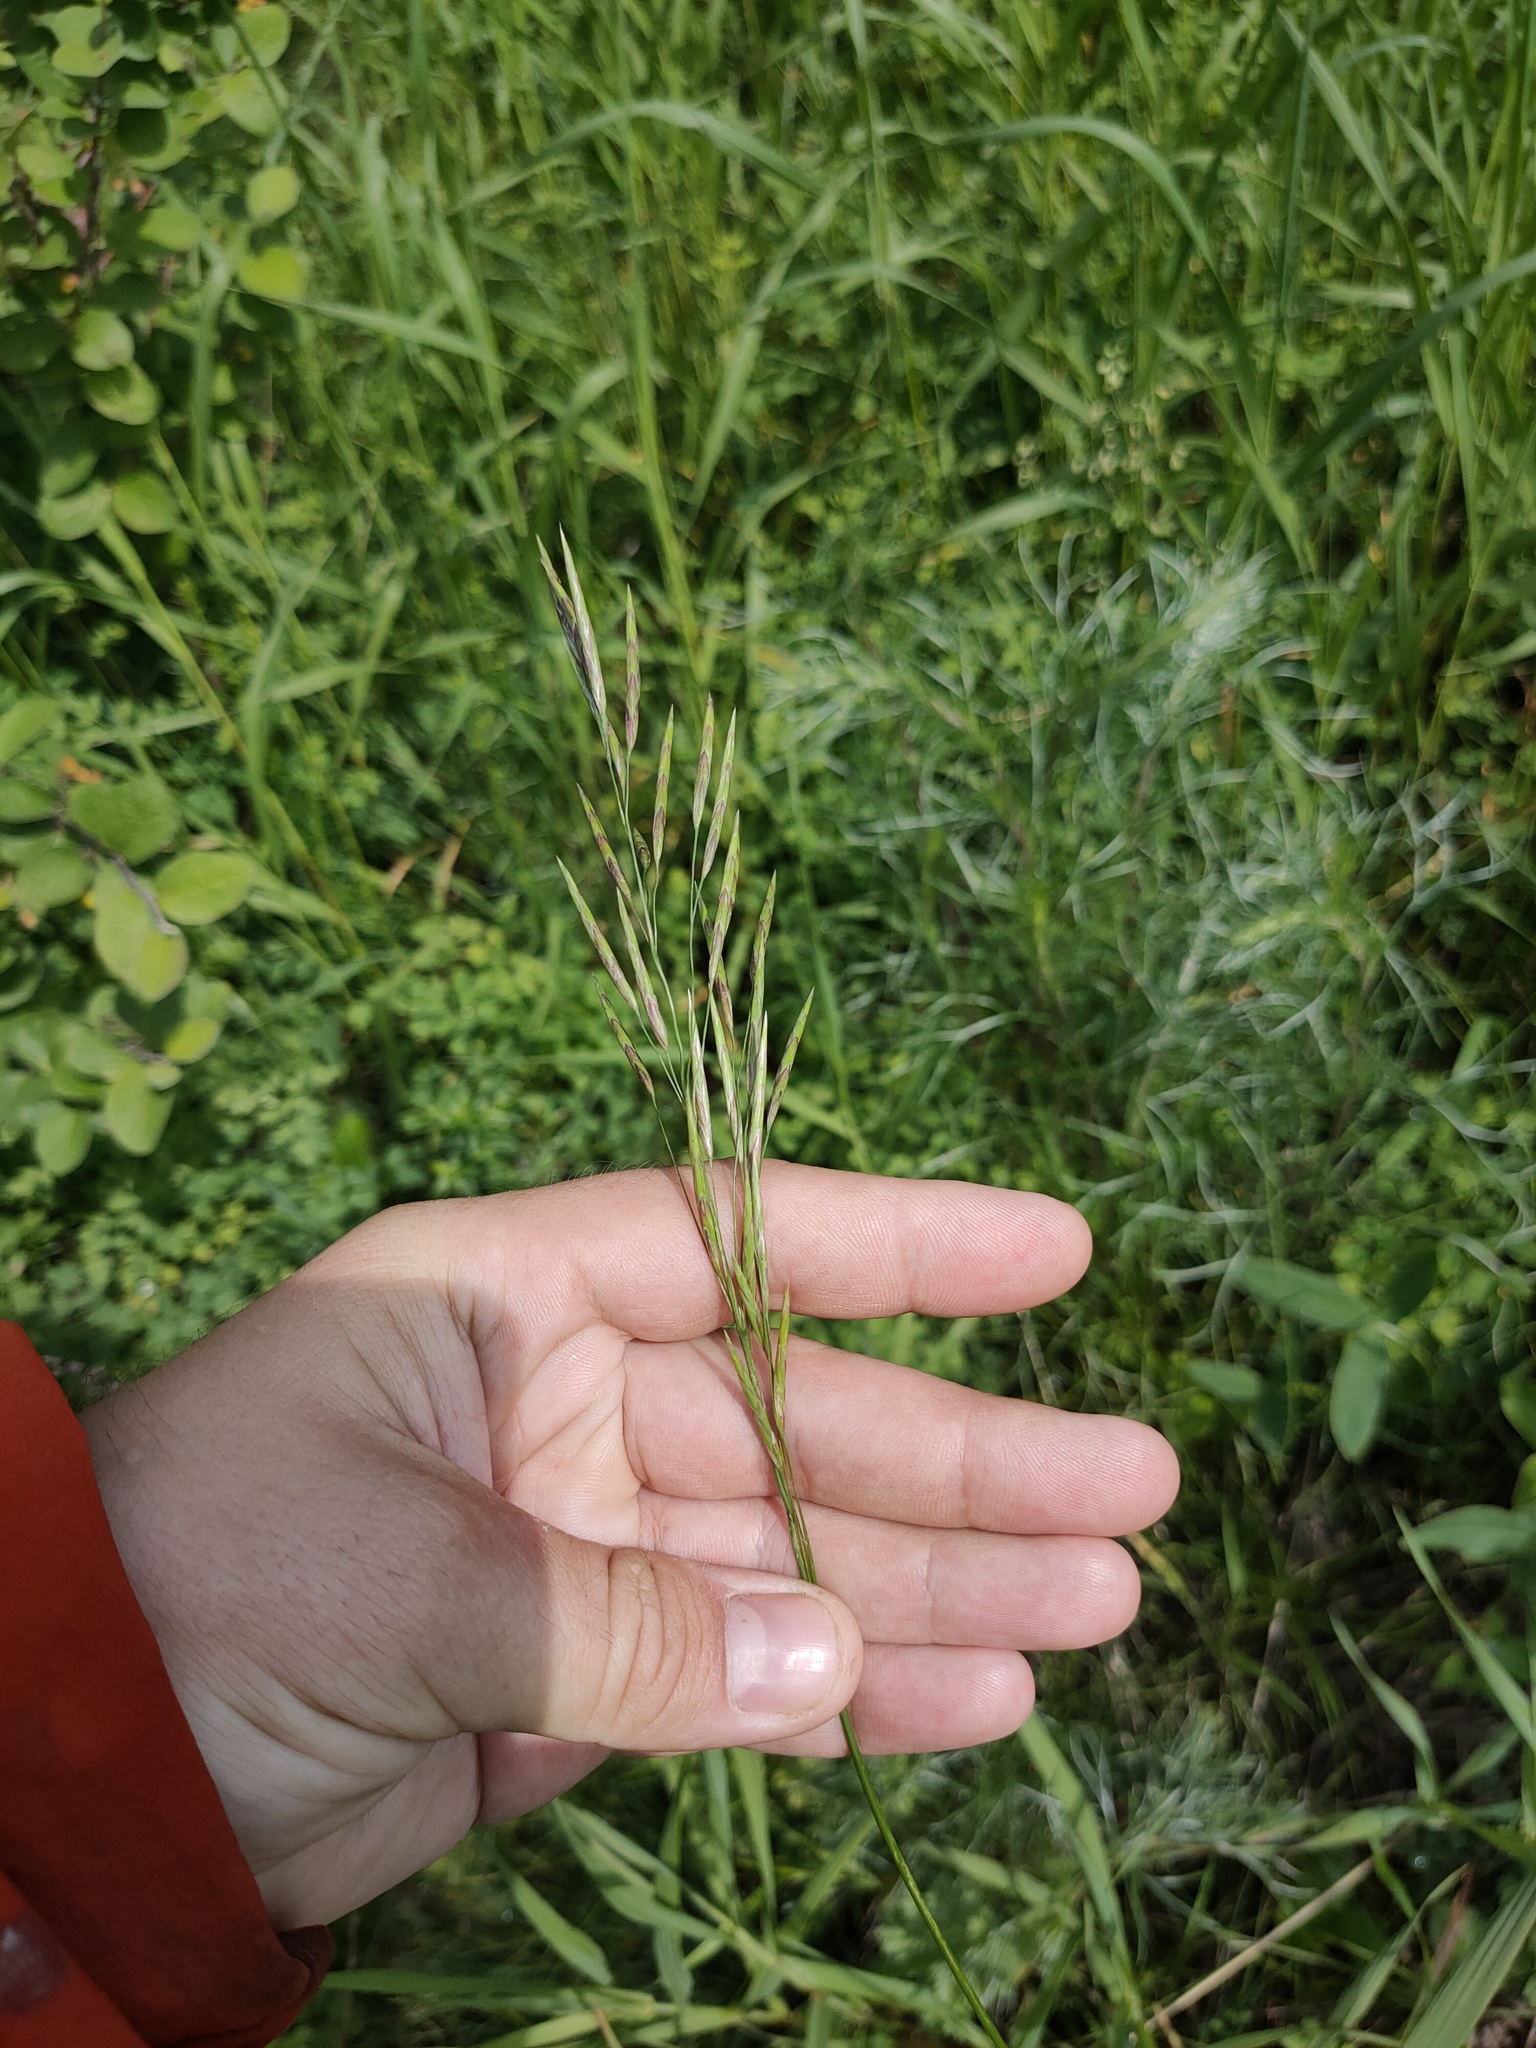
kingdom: Plantae
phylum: Tracheophyta
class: Liliopsida
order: Poales
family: Poaceae
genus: Bromus
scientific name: Bromus inermis
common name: Smooth brome
